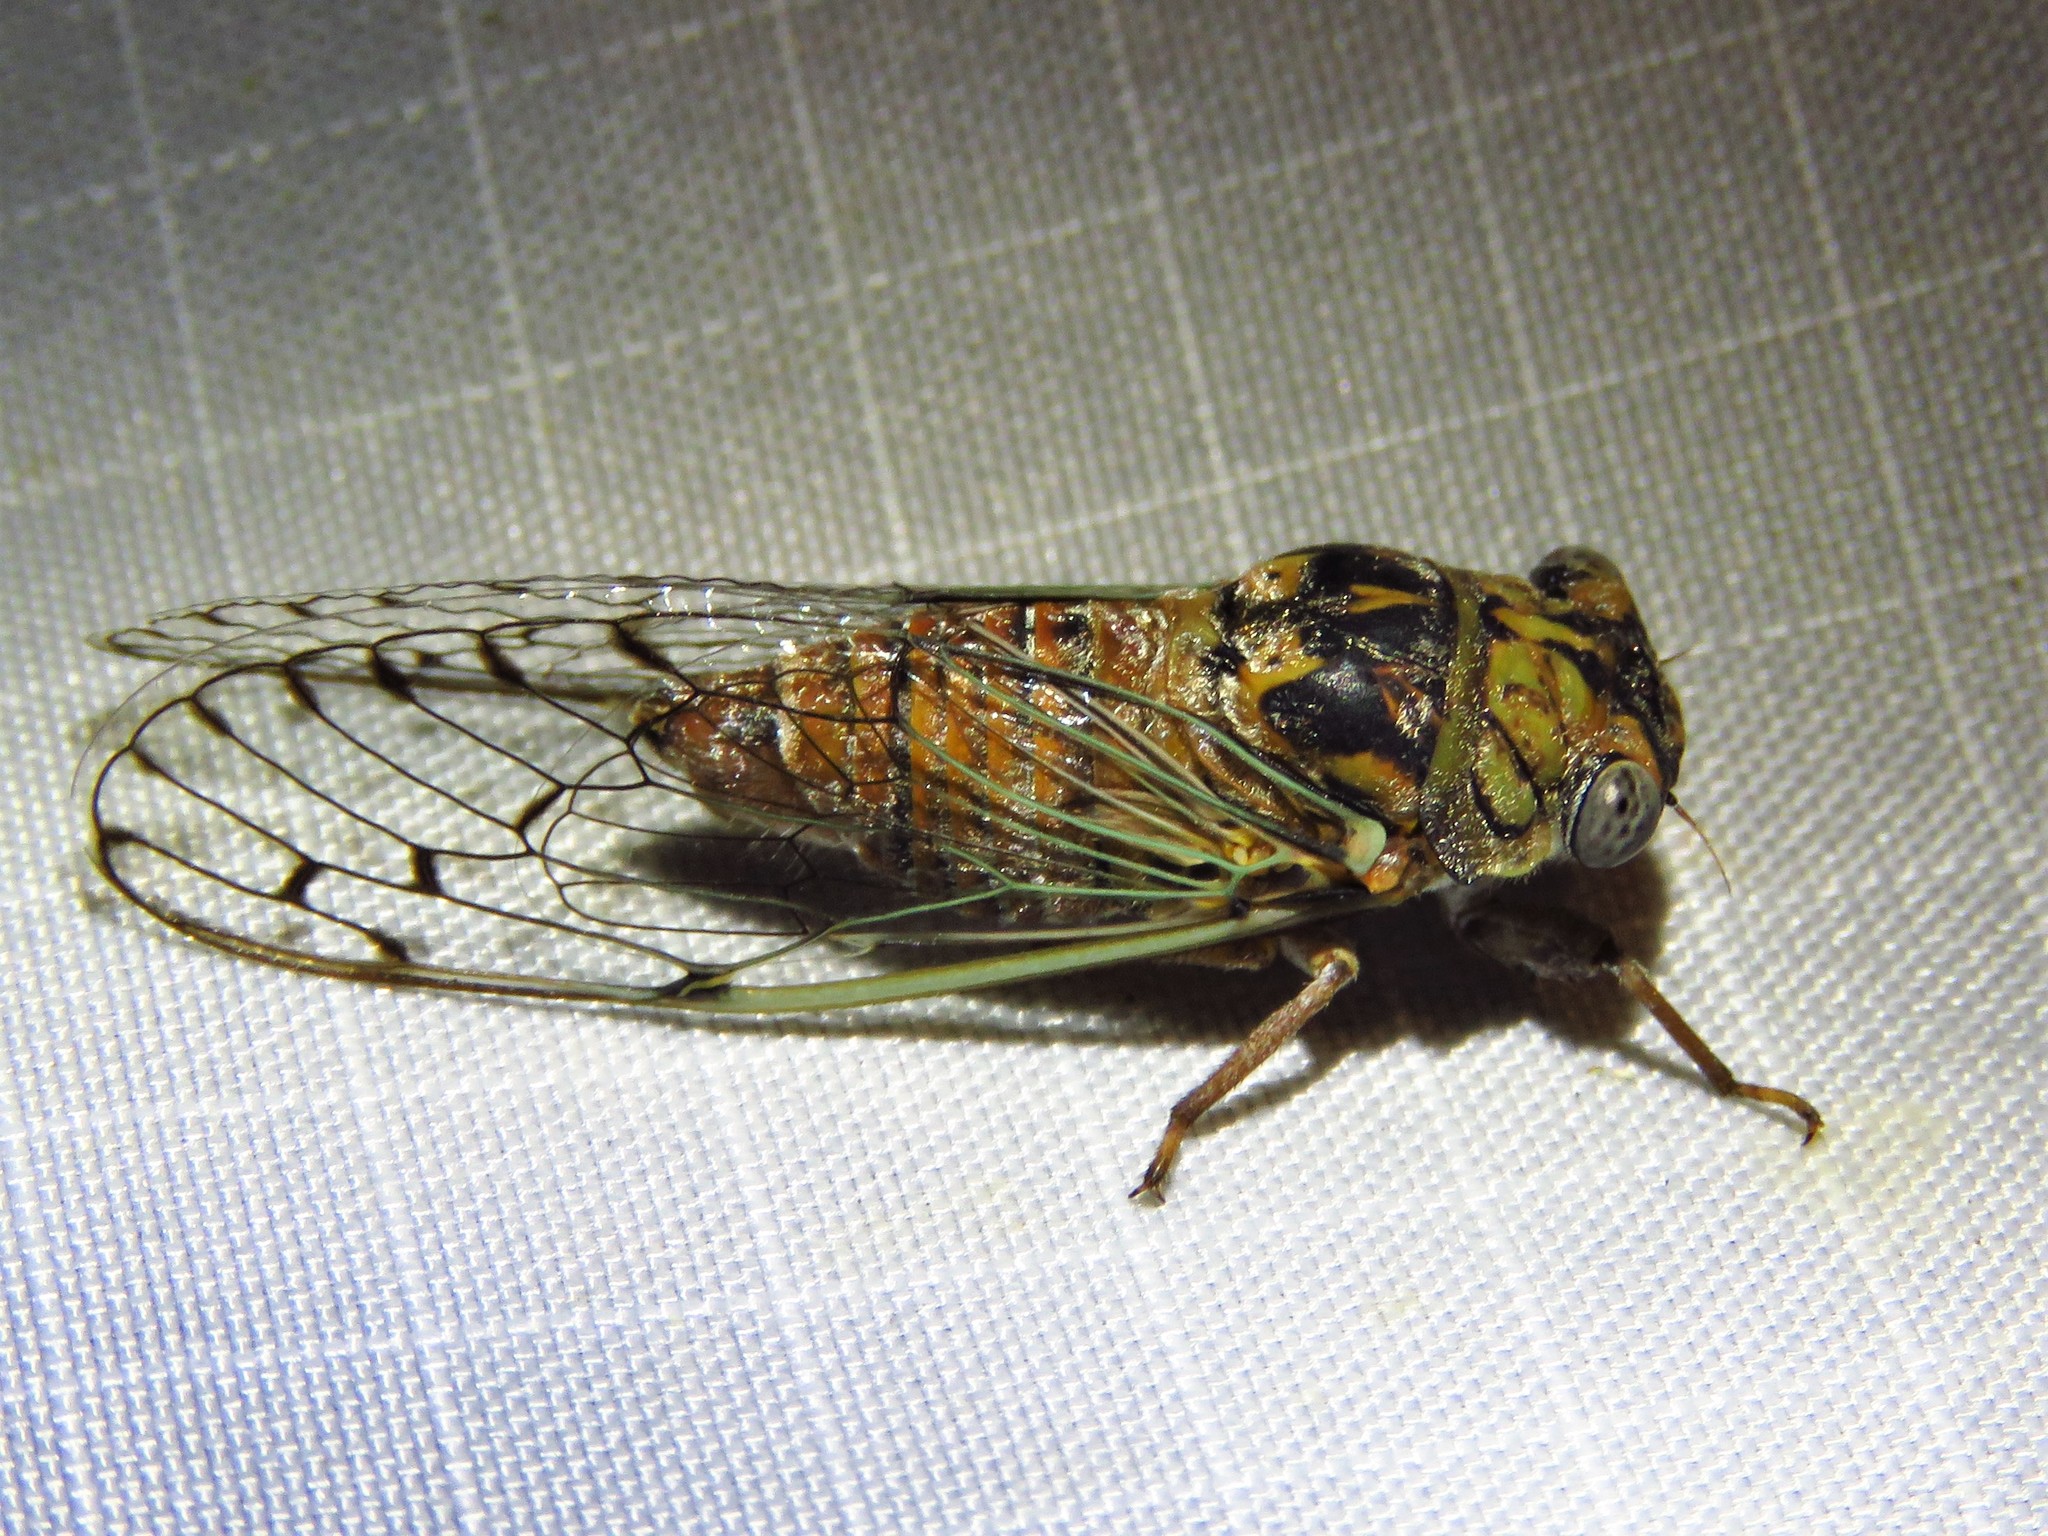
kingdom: Animalia
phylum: Arthropoda
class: Insecta
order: Hemiptera
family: Cicadidae
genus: Pacarina
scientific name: Pacarina puella
